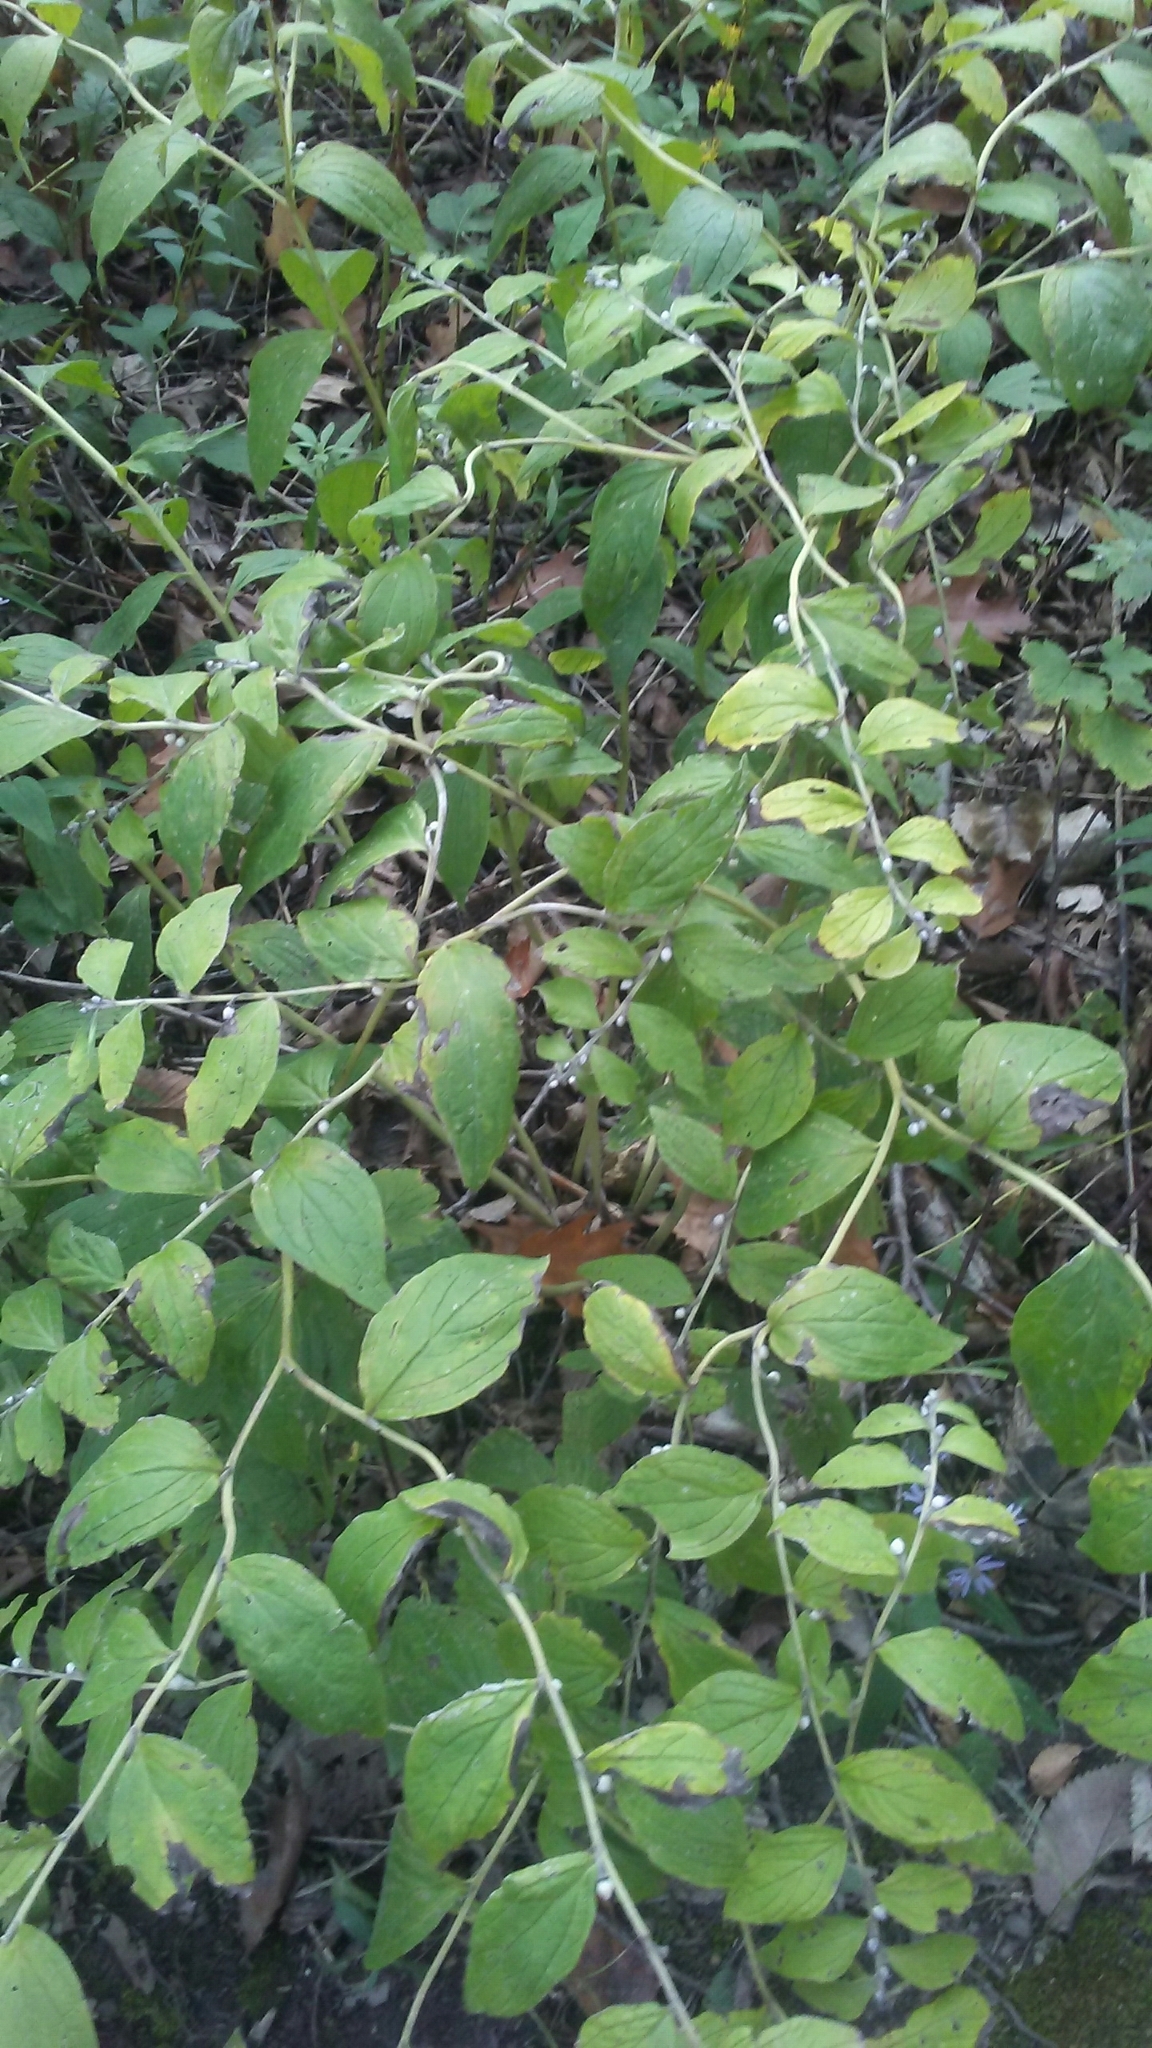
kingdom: Plantae
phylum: Tracheophyta
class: Magnoliopsida
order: Boraginales
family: Boraginaceae
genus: Lithospermum
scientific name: Lithospermum latifolium
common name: American gromwell
